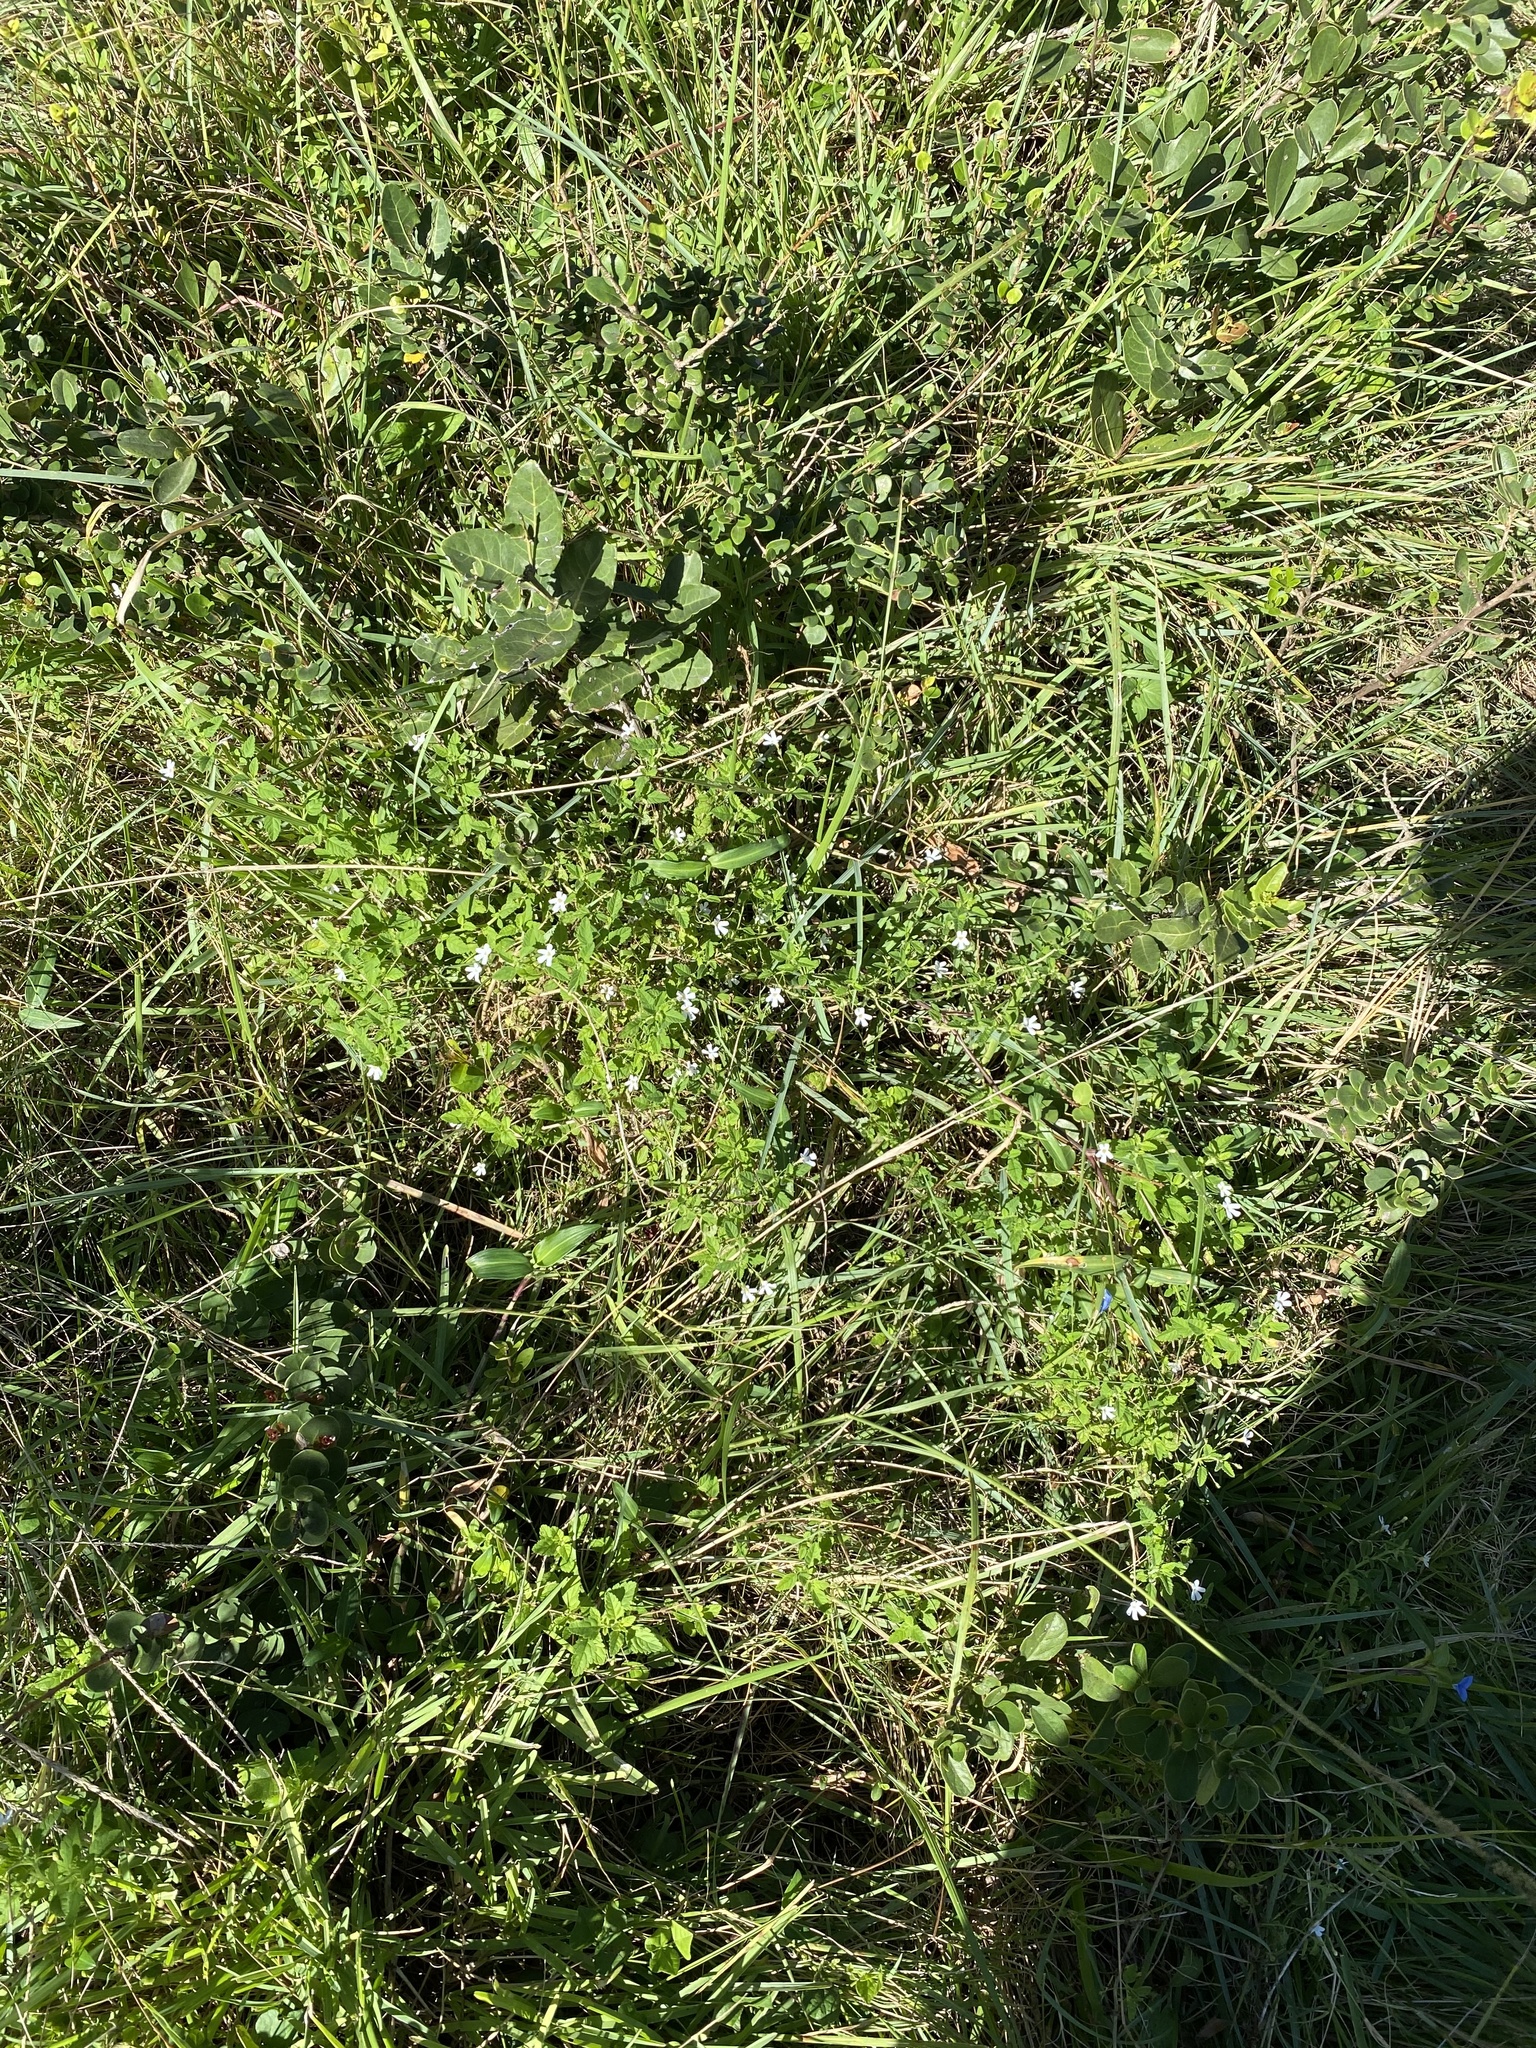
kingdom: Plantae
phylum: Tracheophyta
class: Magnoliopsida
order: Lamiales
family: Scrophulariaceae
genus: Jamesbrittenia
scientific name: Jamesbrittenia kraussiana
